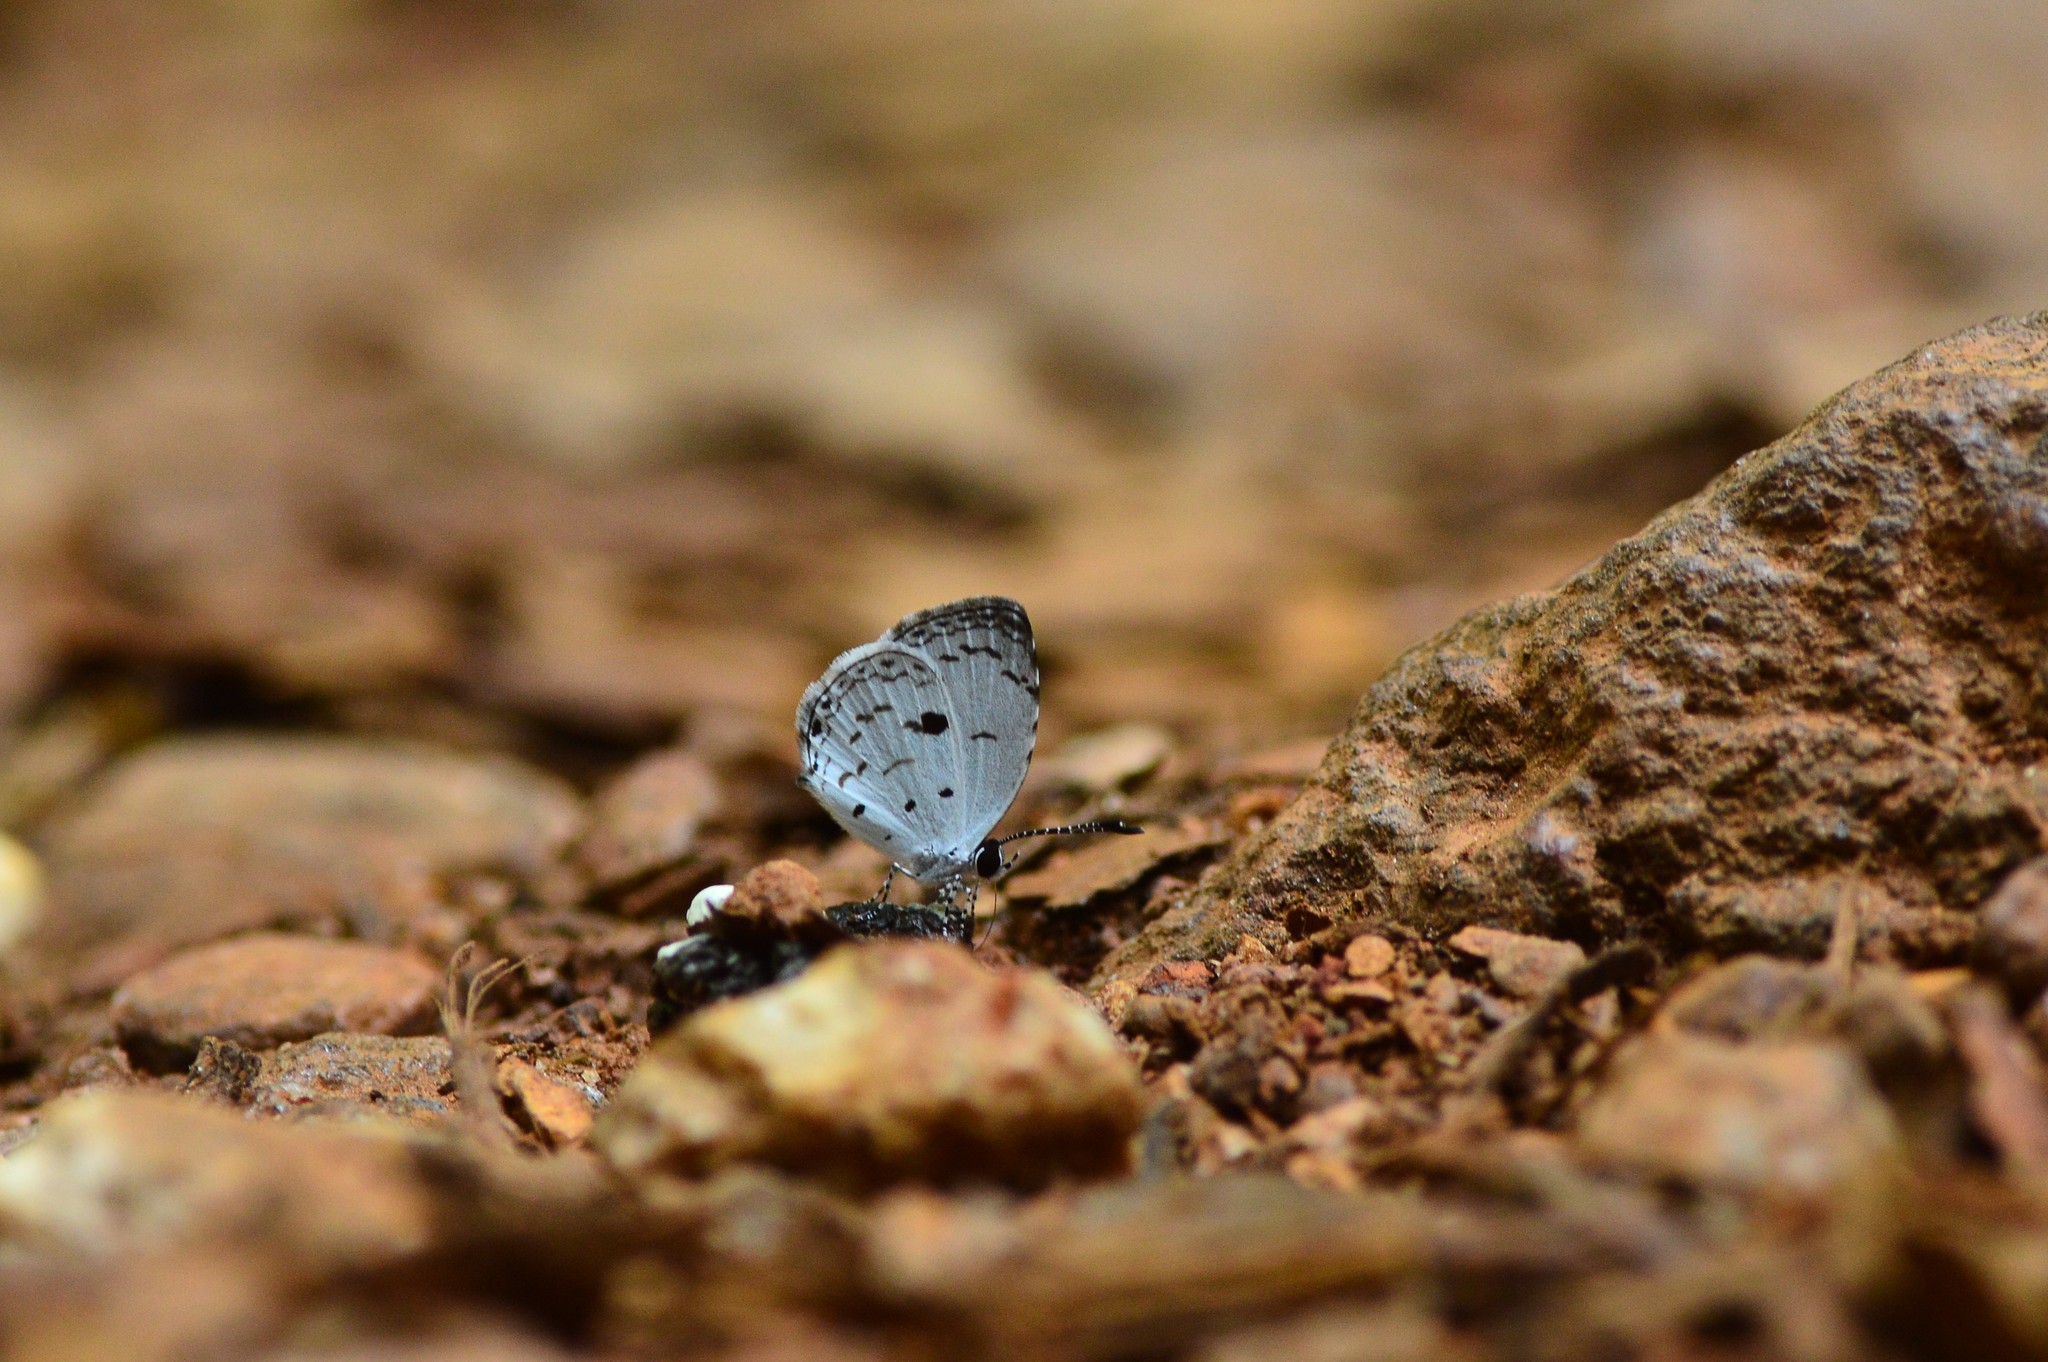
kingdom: Animalia
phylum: Arthropoda
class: Insecta
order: Lepidoptera
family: Lycaenidae
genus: Neopithecops
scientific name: Neopithecops zalmora
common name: Quaker
